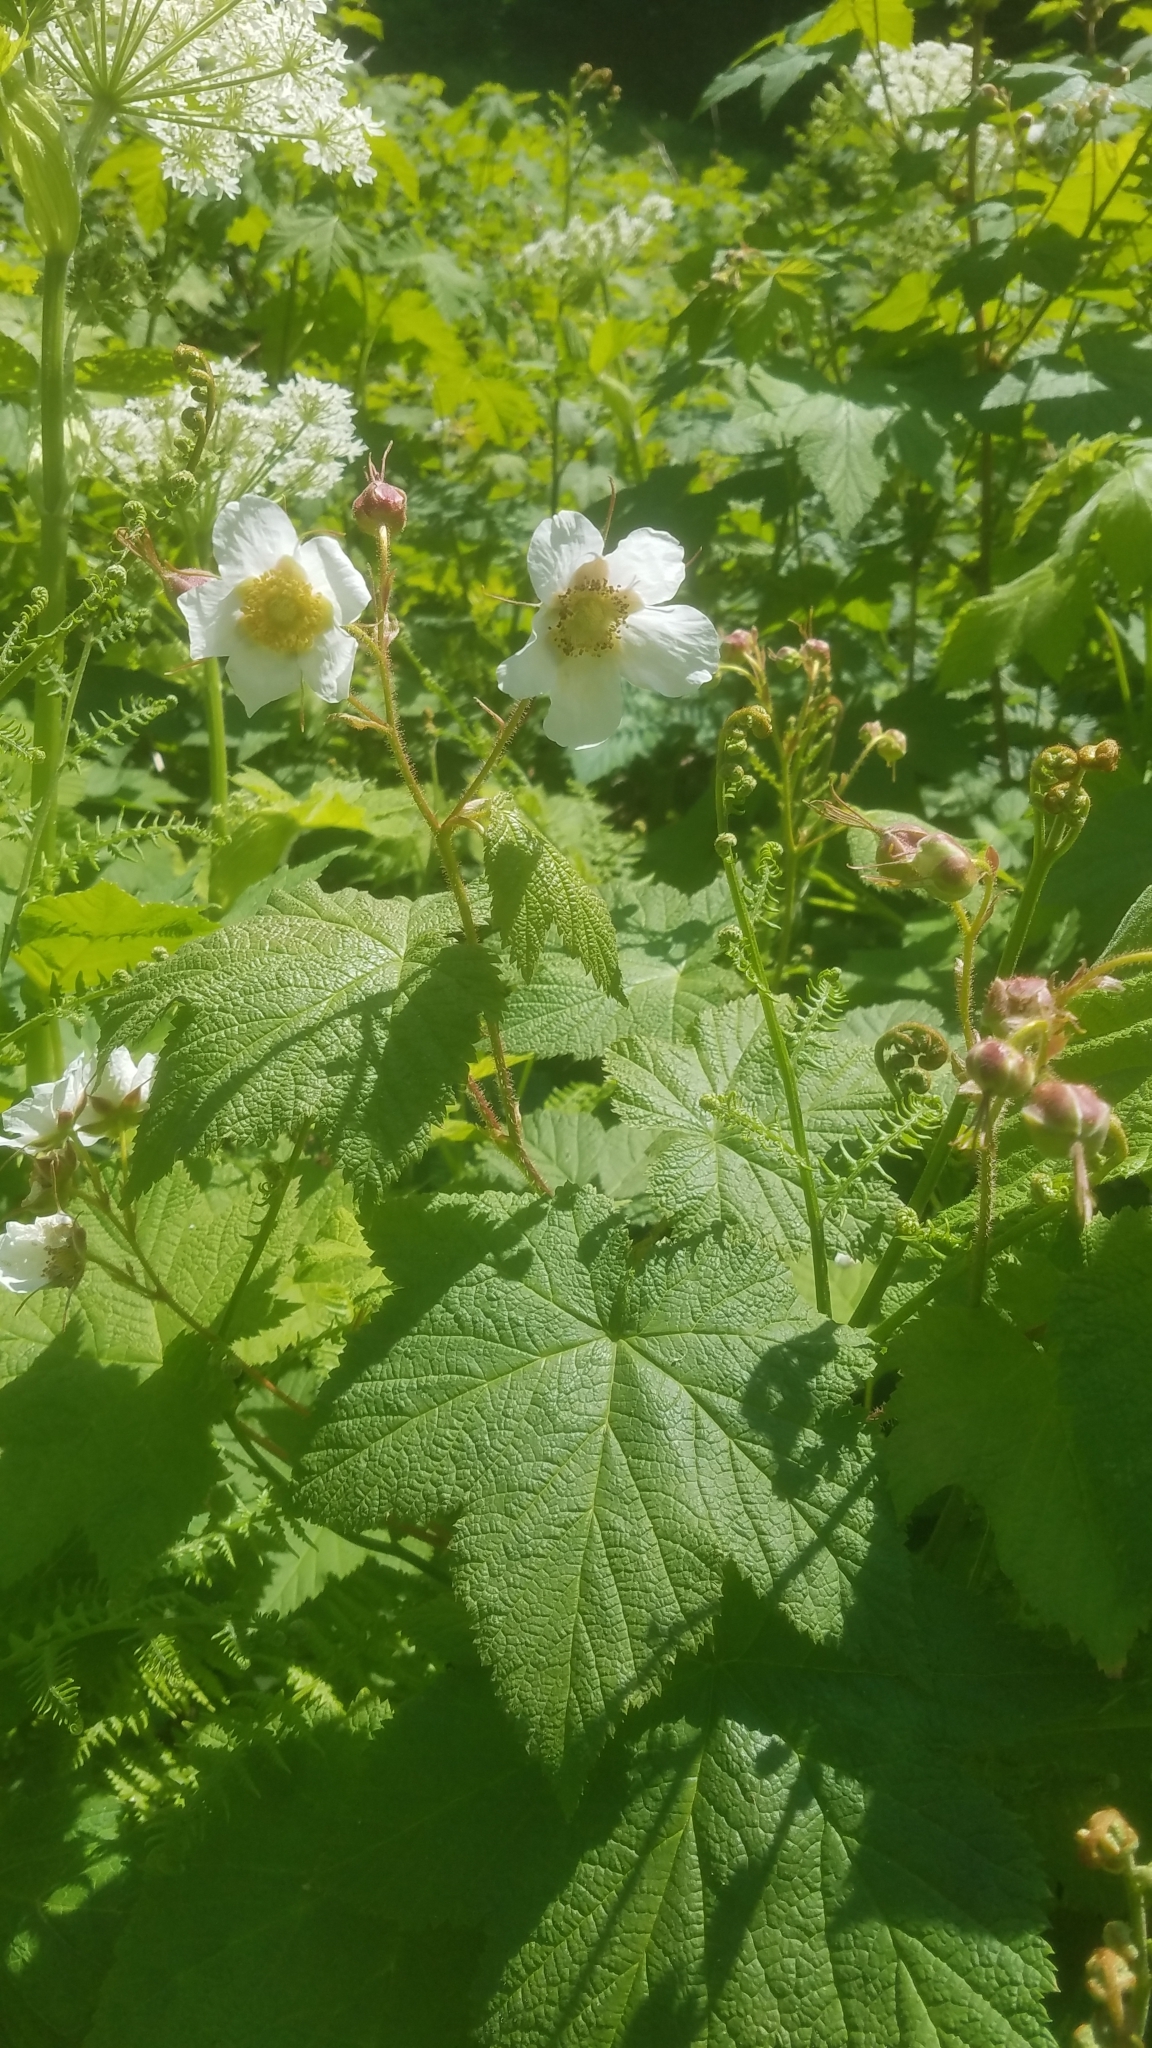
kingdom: Plantae
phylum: Tracheophyta
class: Magnoliopsida
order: Rosales
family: Rosaceae
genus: Rubus
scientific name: Rubus parviflorus
